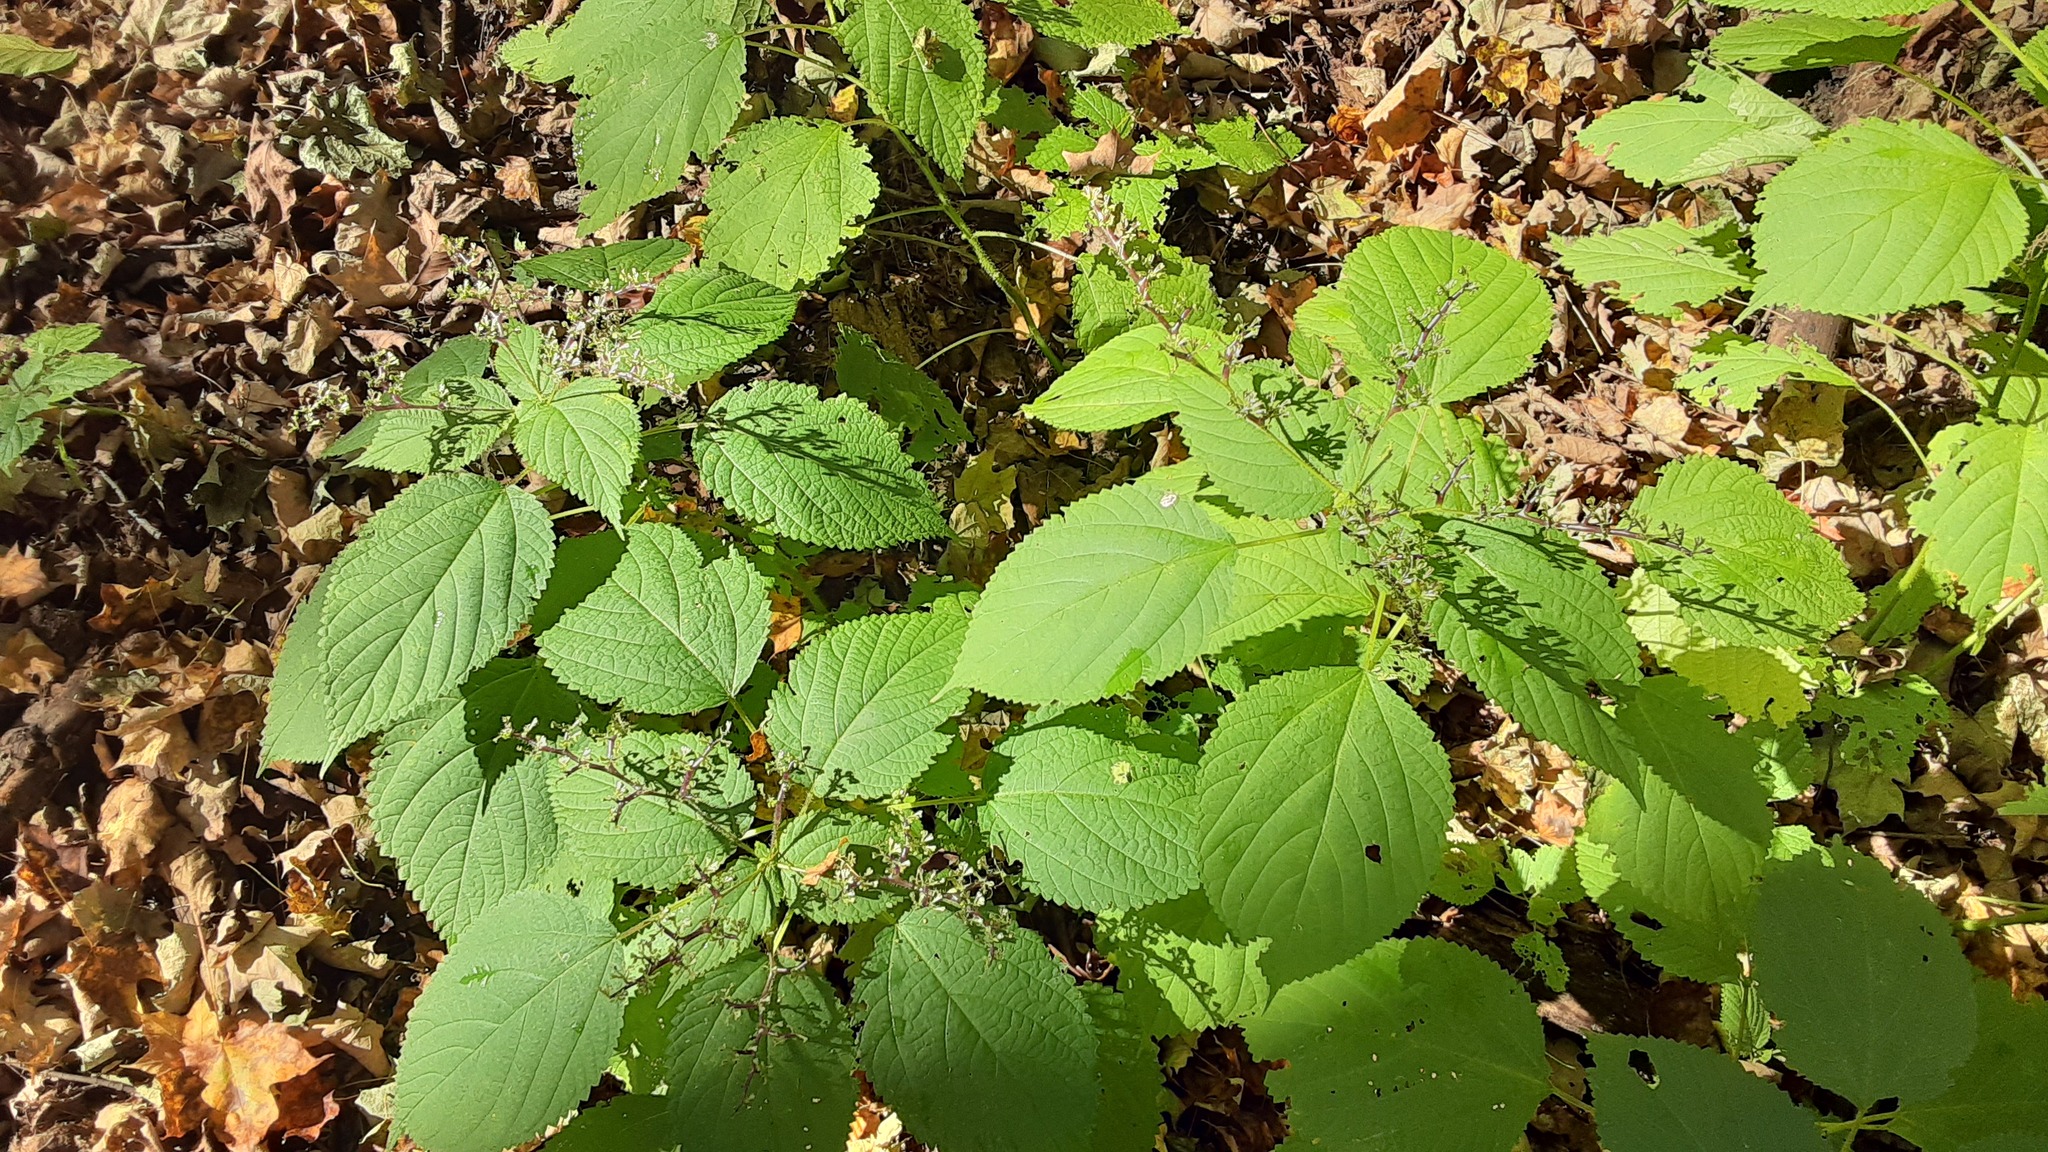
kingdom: Plantae
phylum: Tracheophyta
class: Magnoliopsida
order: Rosales
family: Urticaceae
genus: Laportea
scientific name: Laportea canadensis
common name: Canada nettle
